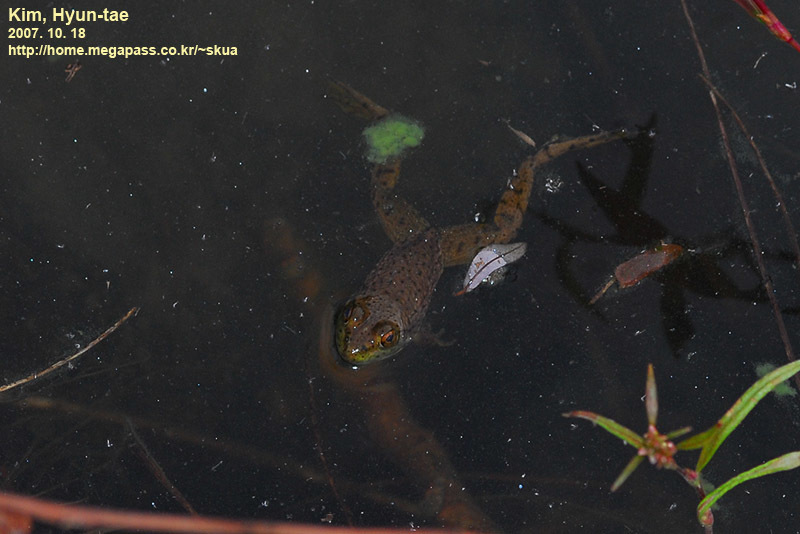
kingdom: Animalia
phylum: Chordata
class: Amphibia
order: Anura
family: Ranidae
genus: Lithobates
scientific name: Lithobates catesbeianus
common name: American bullfrog
